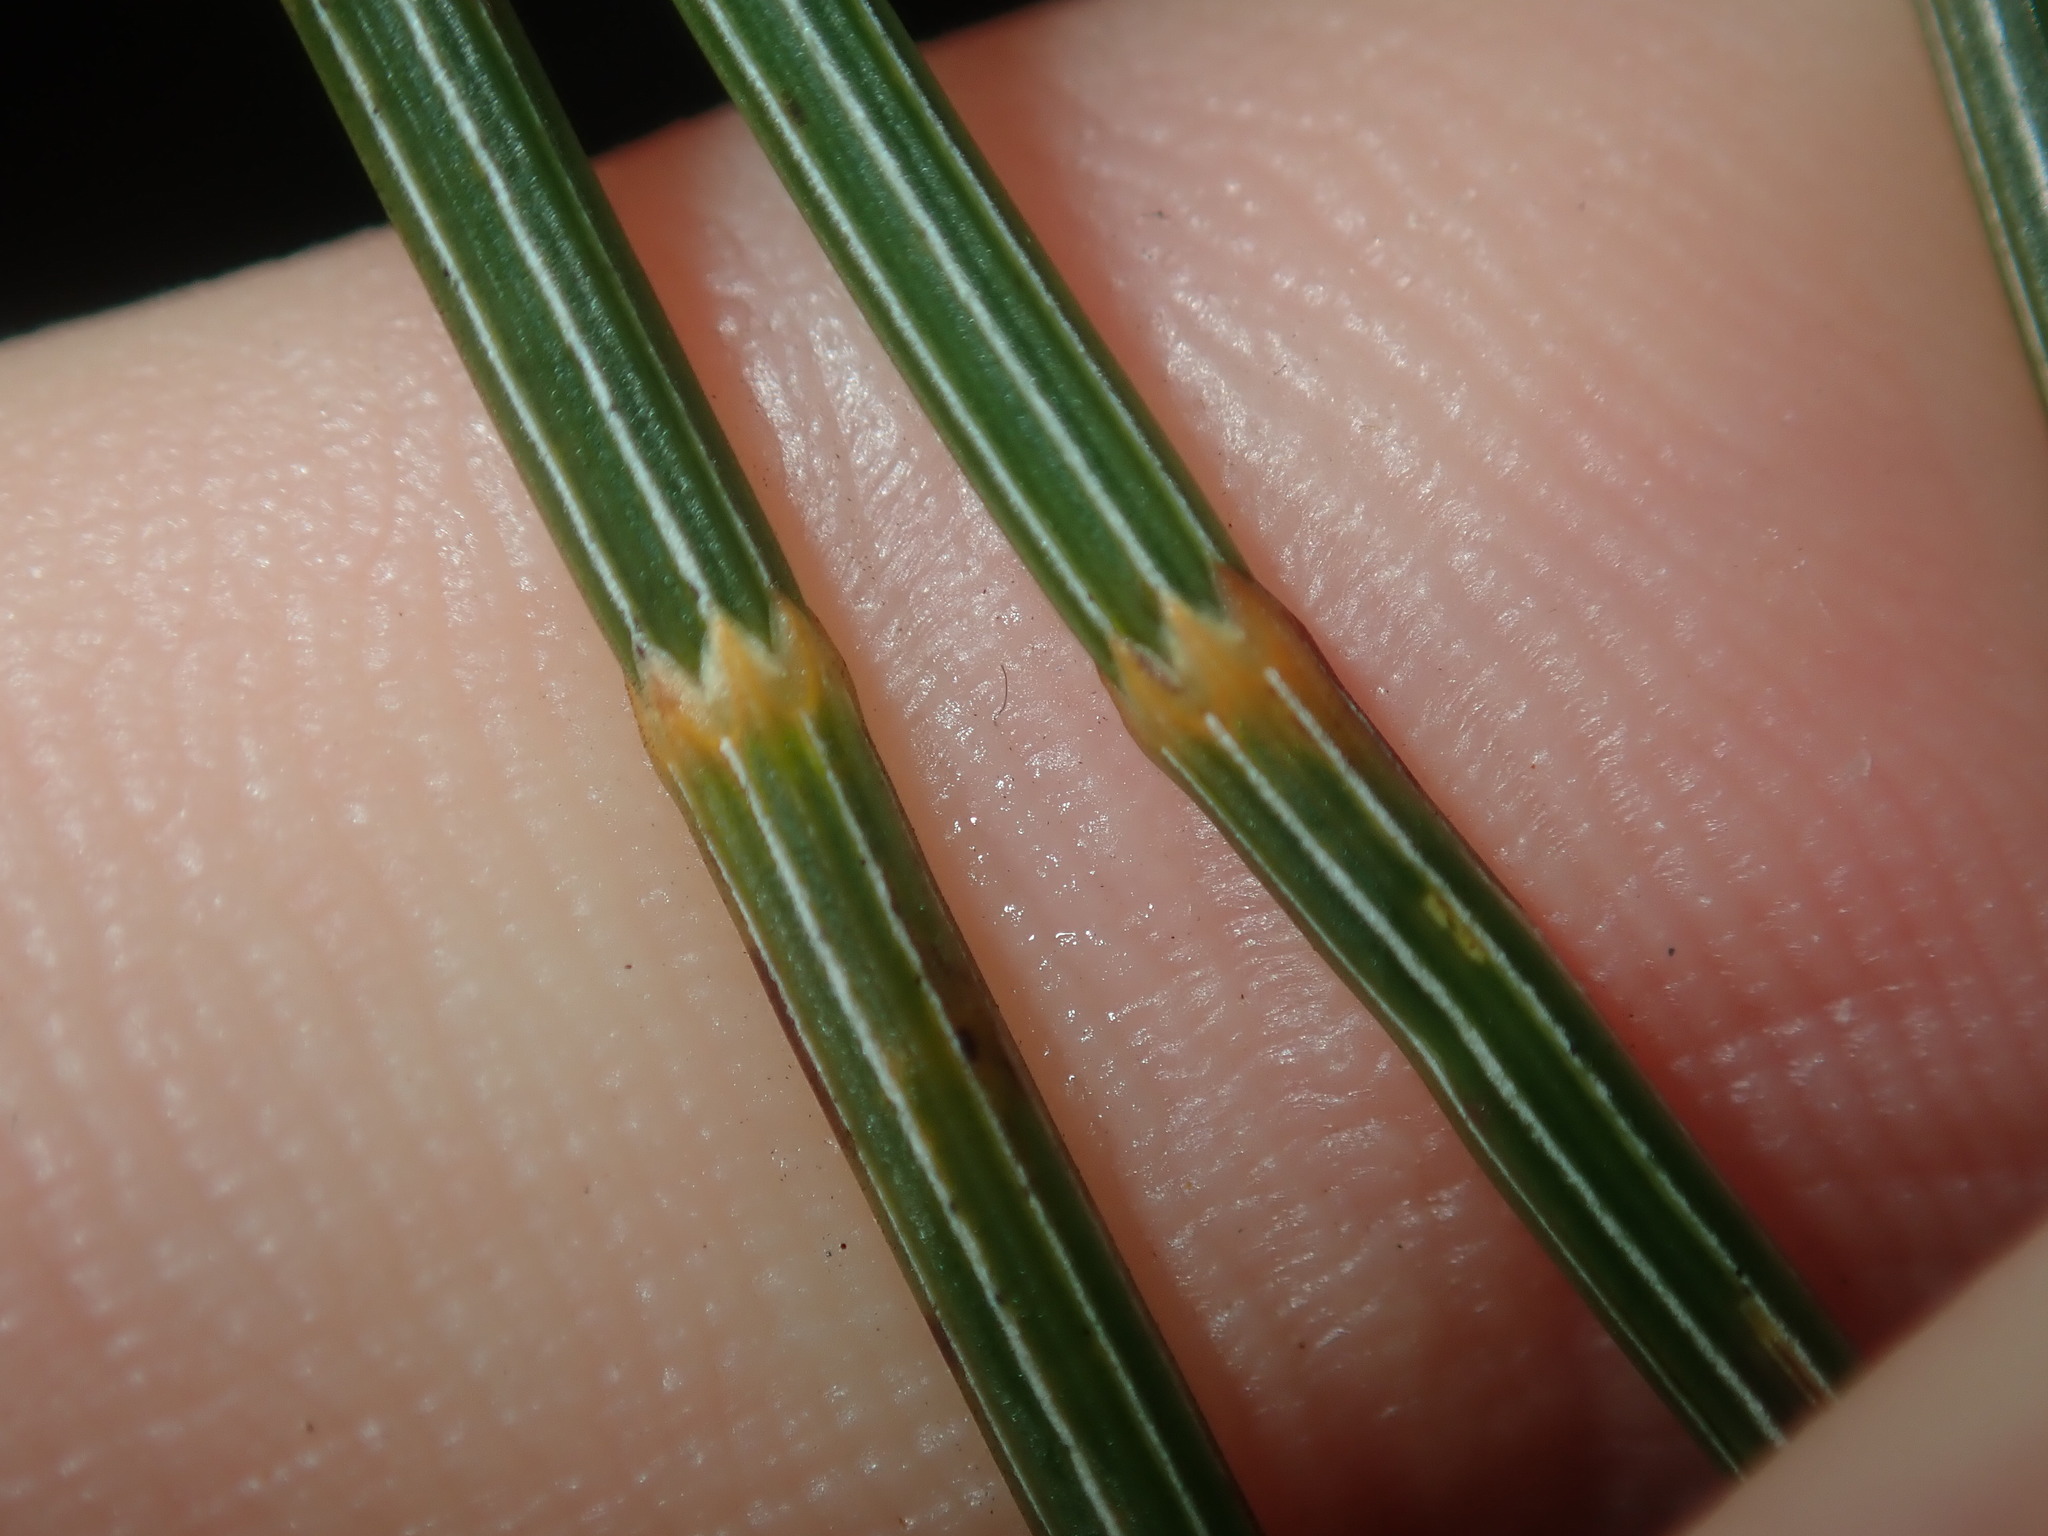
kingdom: Plantae
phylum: Tracheophyta
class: Magnoliopsida
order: Fagales
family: Casuarinaceae
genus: Allocasuarina
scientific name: Allocasuarina distyla
